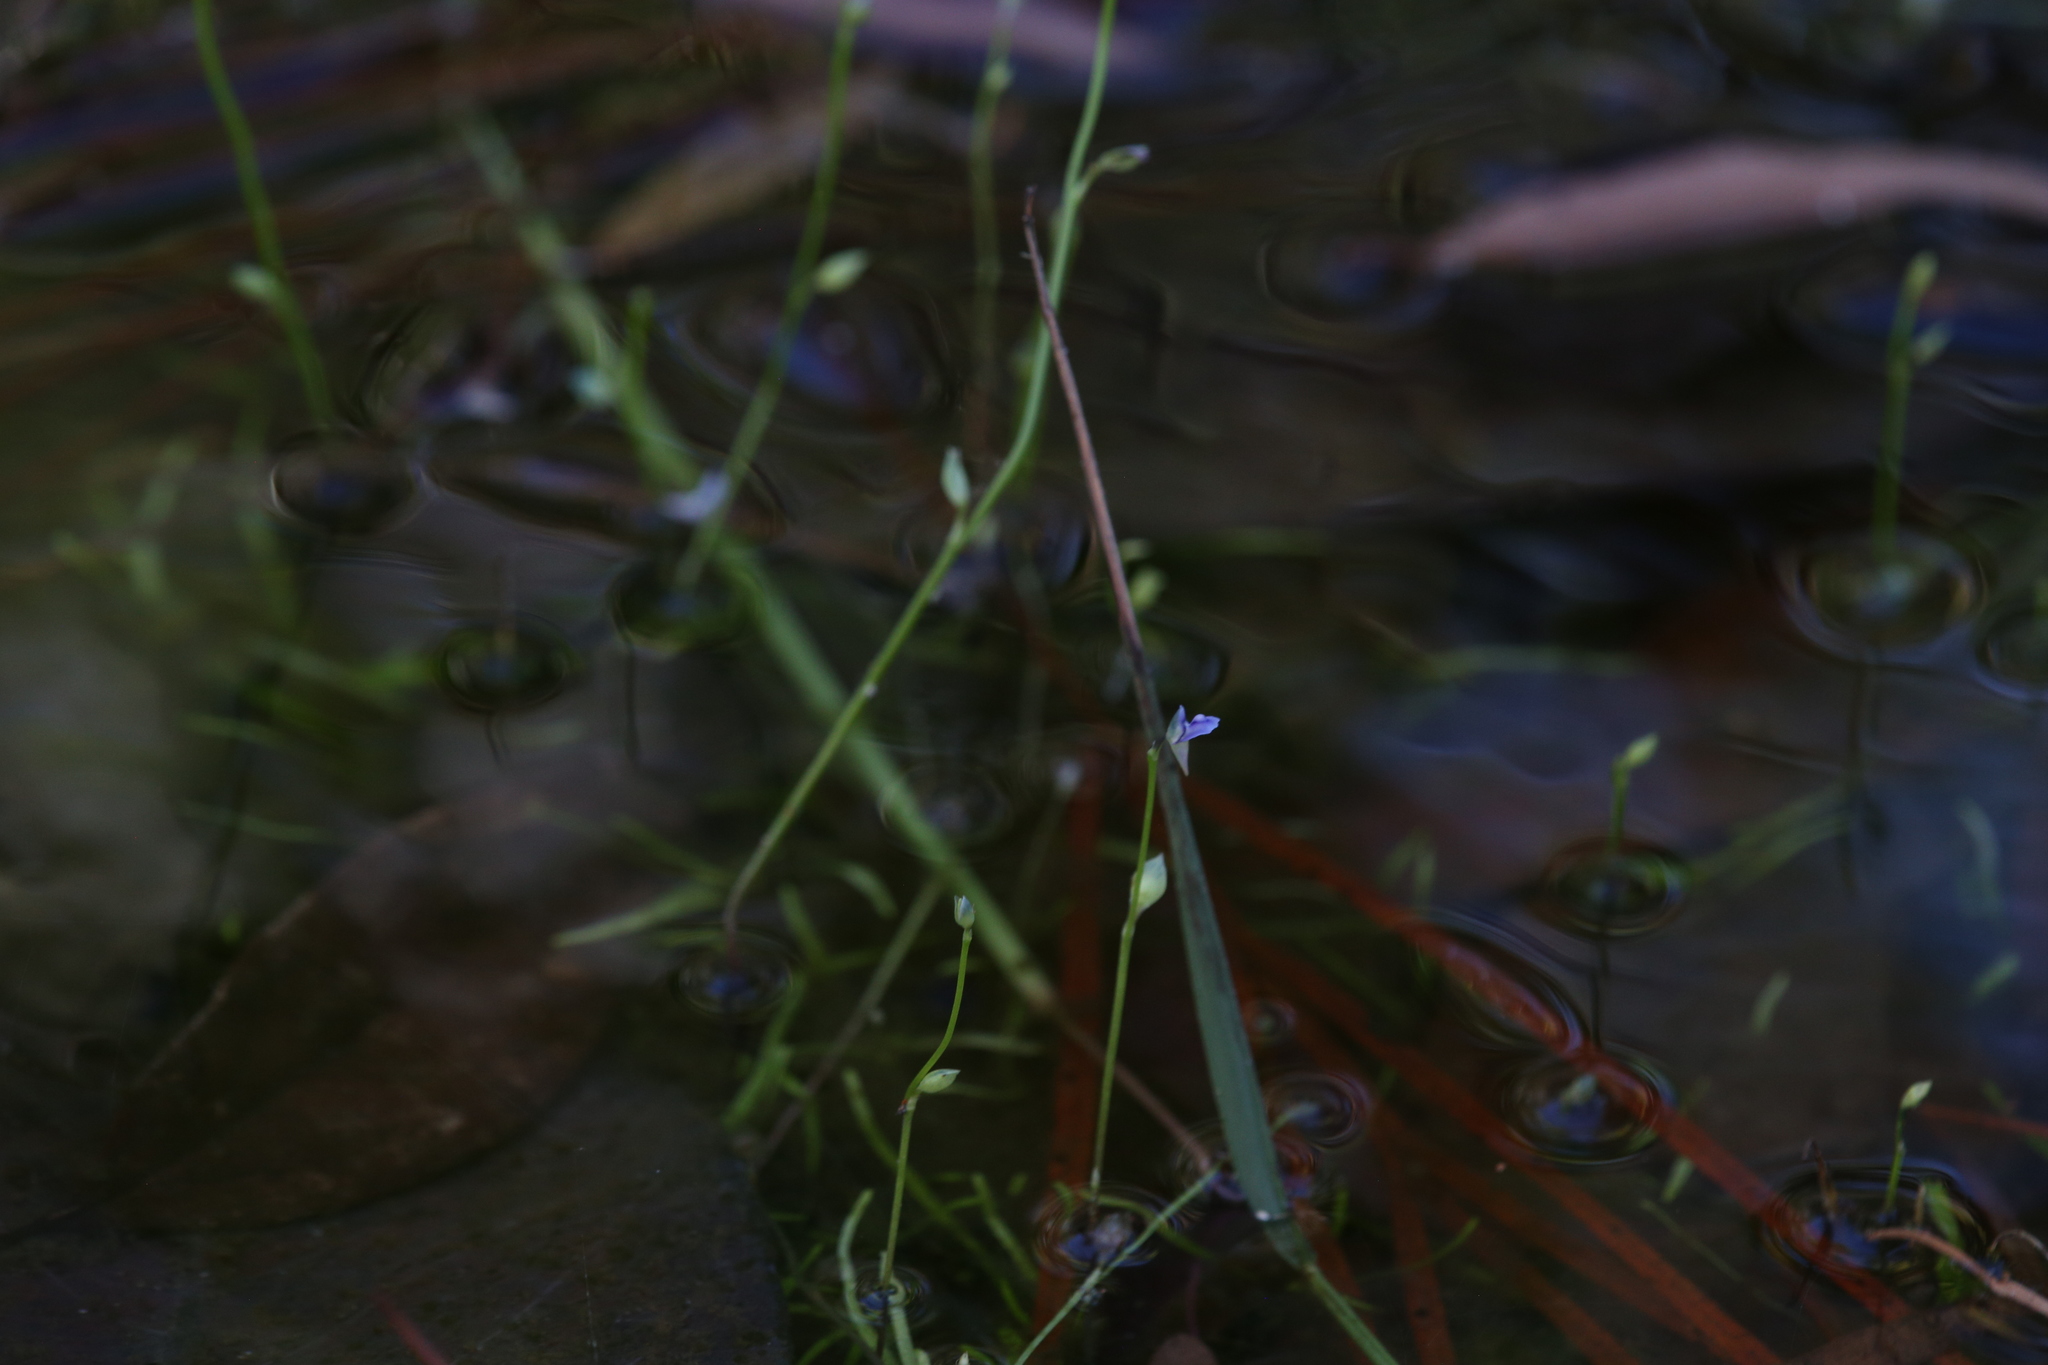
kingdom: Plantae
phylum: Tracheophyta
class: Magnoliopsida
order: Lamiales
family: Lentibulariaceae
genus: Utricularia
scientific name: Utricularia uliginosa
